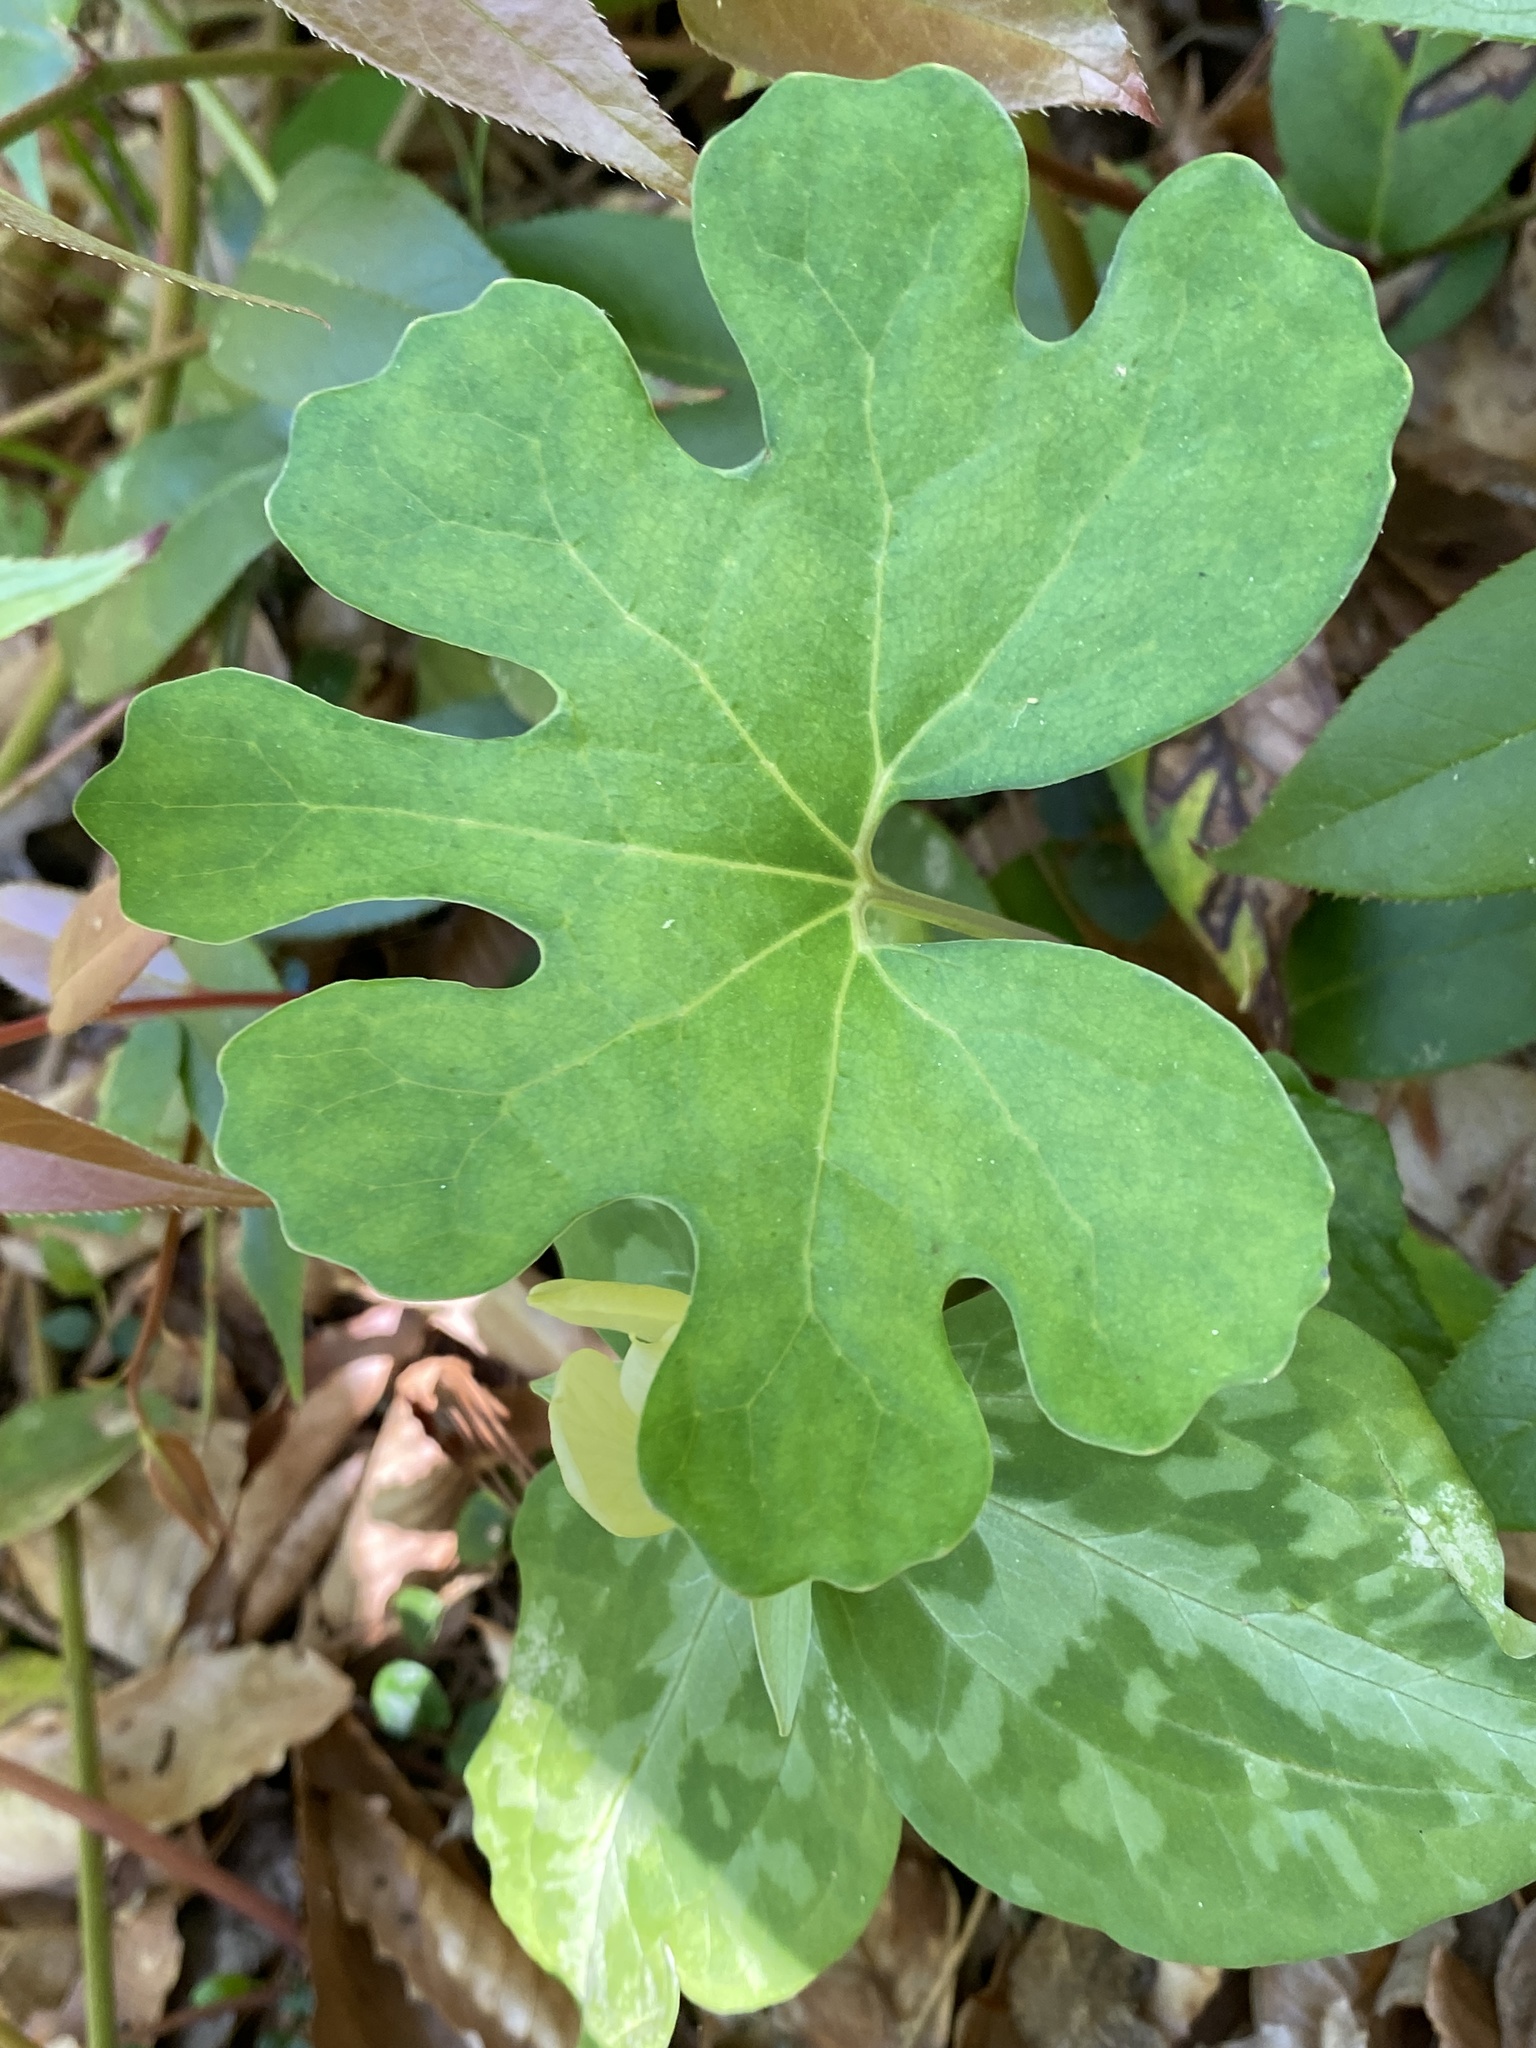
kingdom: Plantae
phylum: Tracheophyta
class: Magnoliopsida
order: Ranunculales
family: Papaveraceae
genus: Sanguinaria
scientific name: Sanguinaria canadensis
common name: Bloodroot
